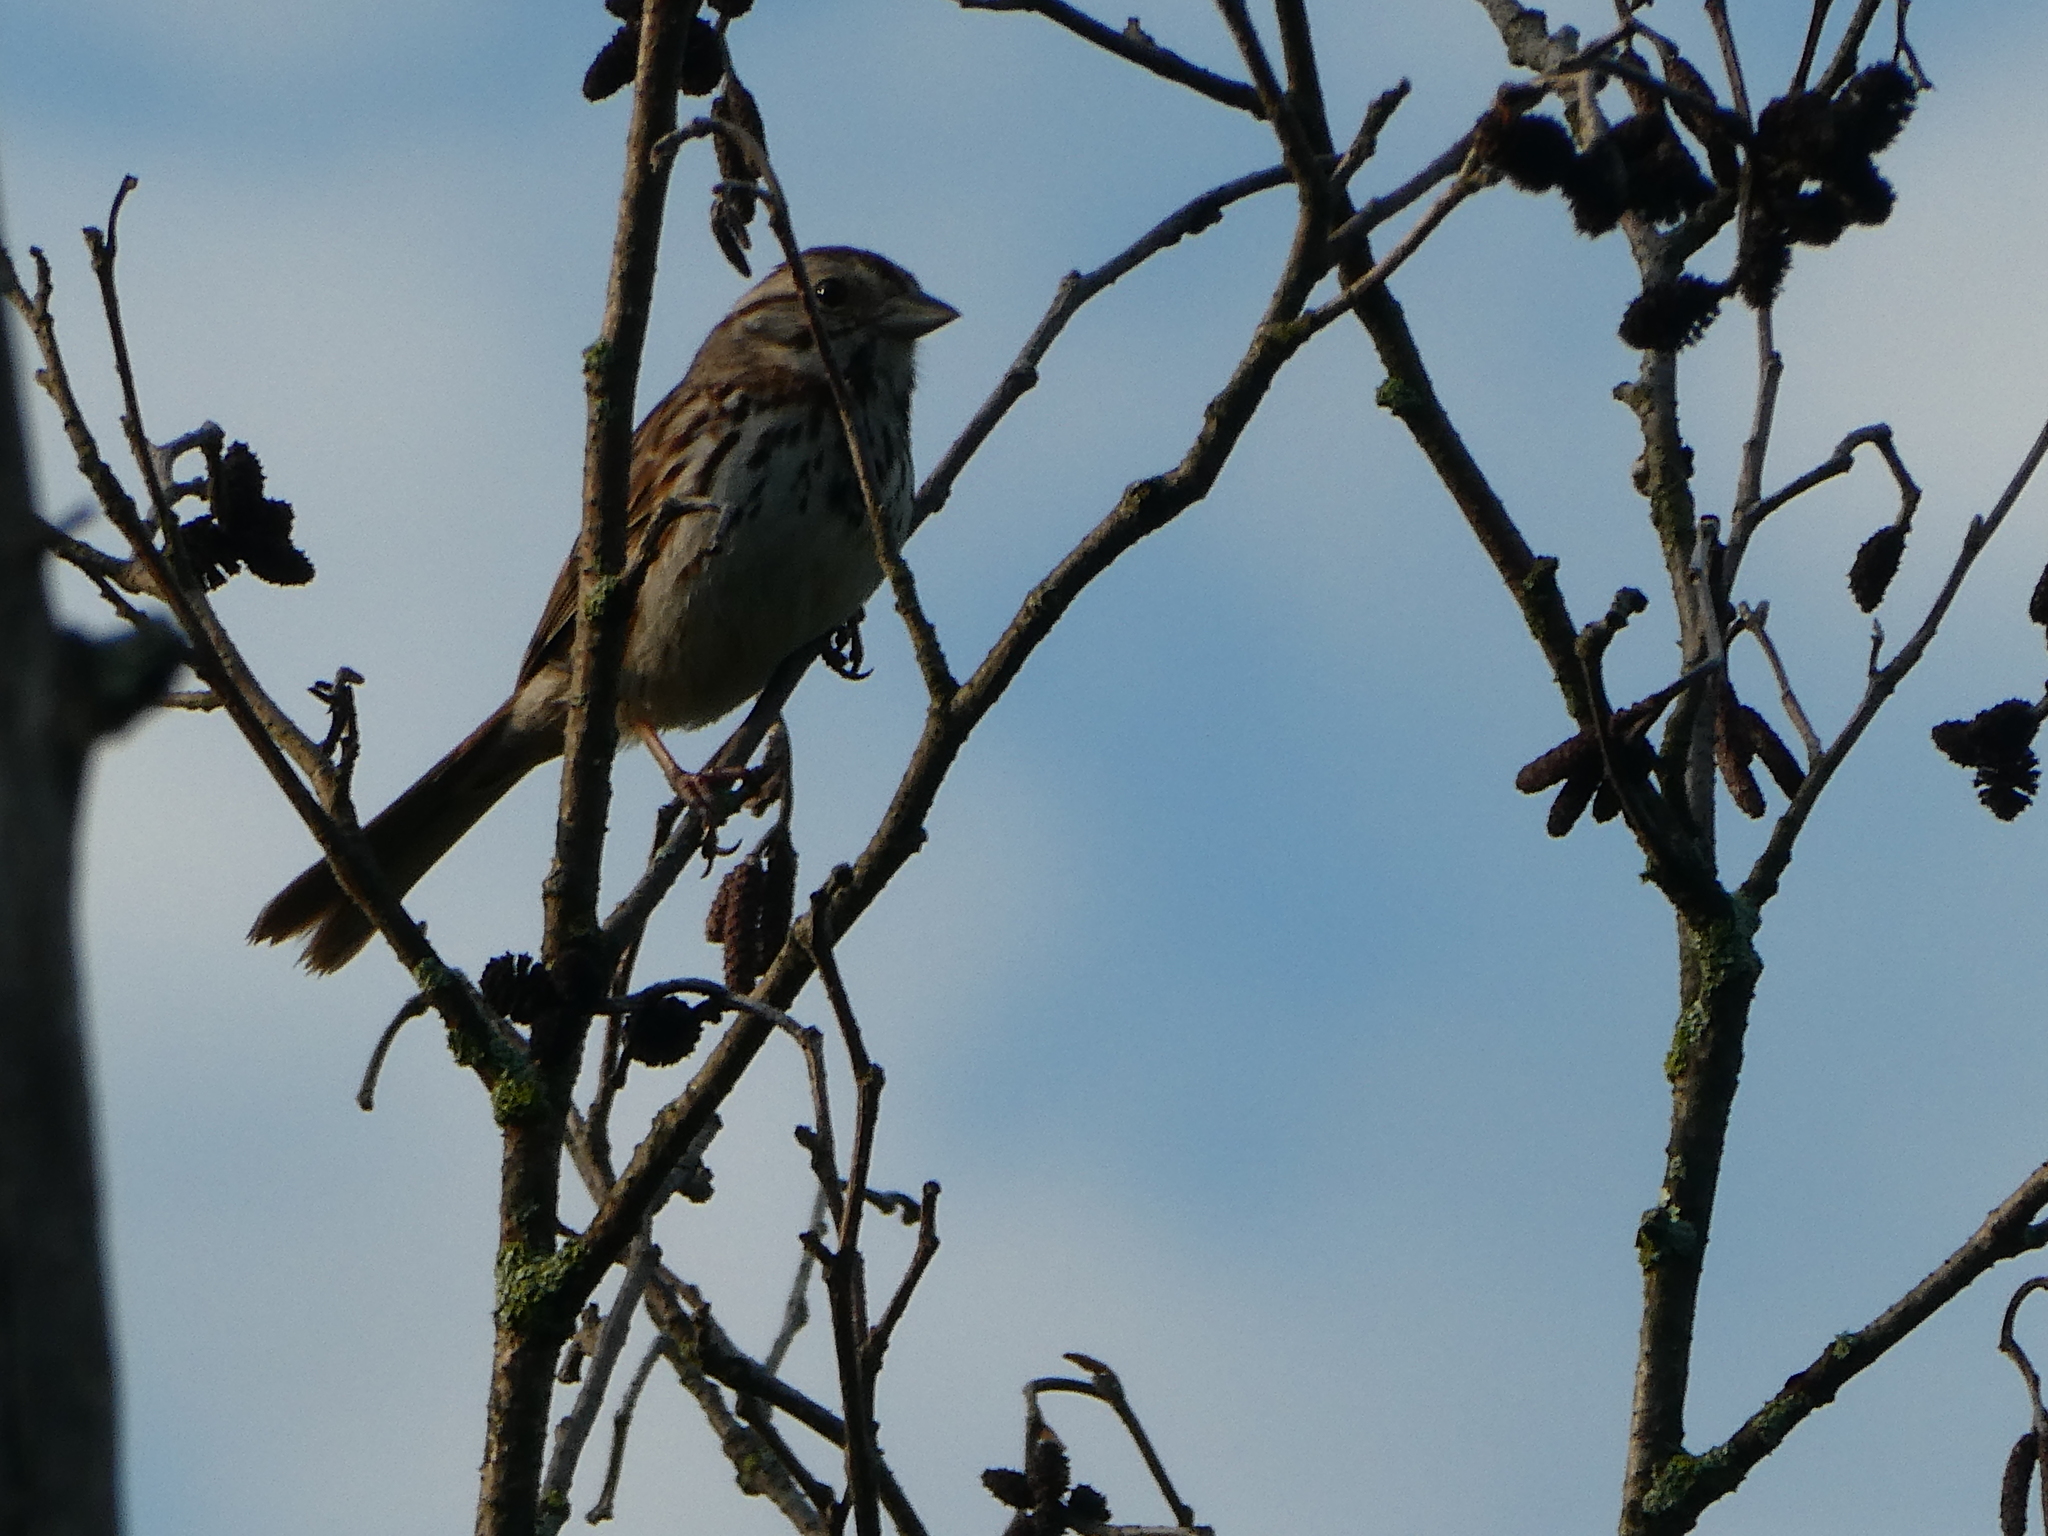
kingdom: Animalia
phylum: Chordata
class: Aves
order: Passeriformes
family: Passerellidae
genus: Melospiza
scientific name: Melospiza melodia
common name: Song sparrow
